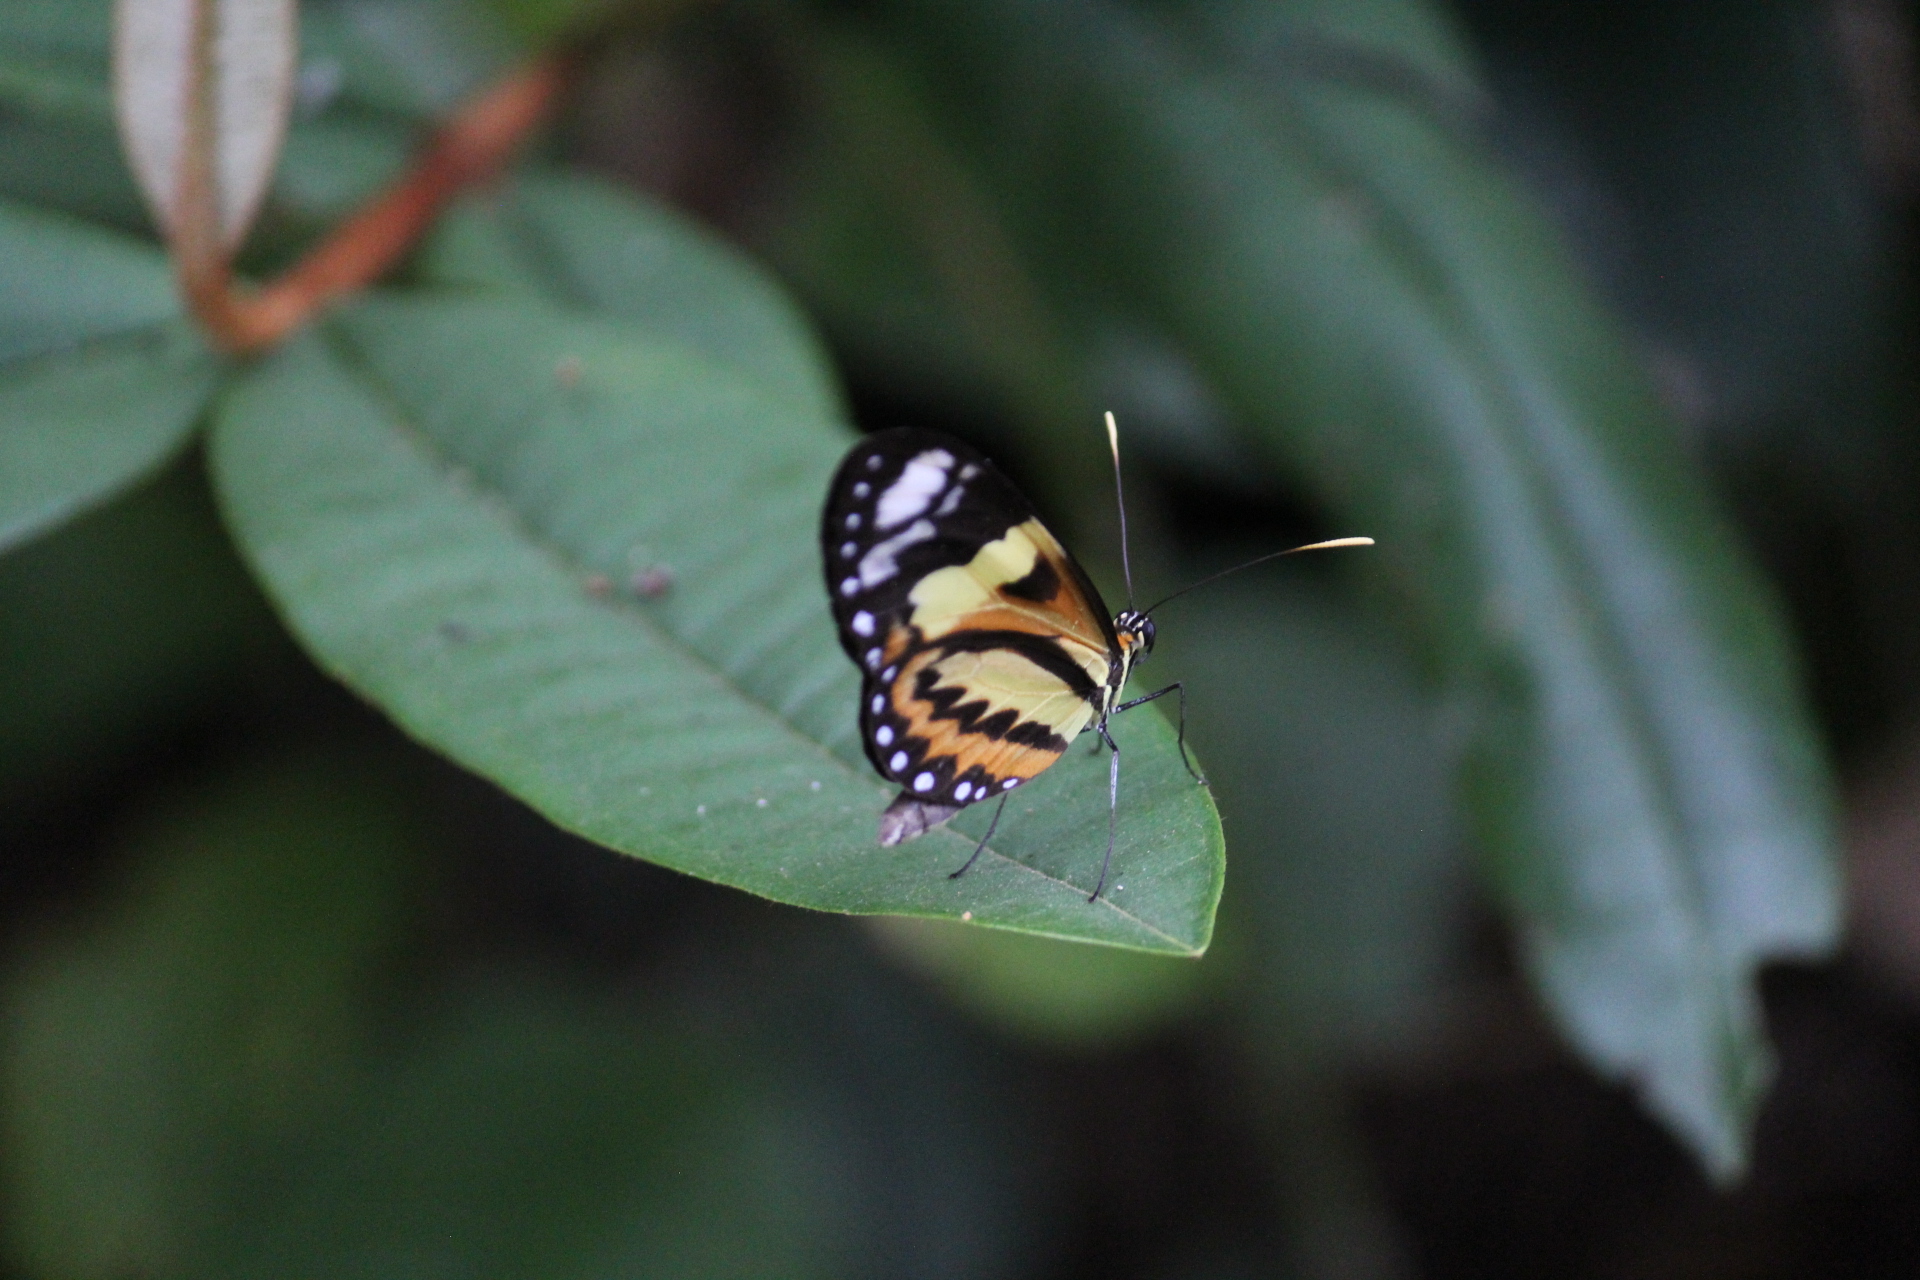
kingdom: Animalia
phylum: Arthropoda
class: Insecta
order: Lepidoptera
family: Nymphalidae
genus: Mechanitis
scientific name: Mechanitis lysimnia
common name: Lysimnia tigerwing
